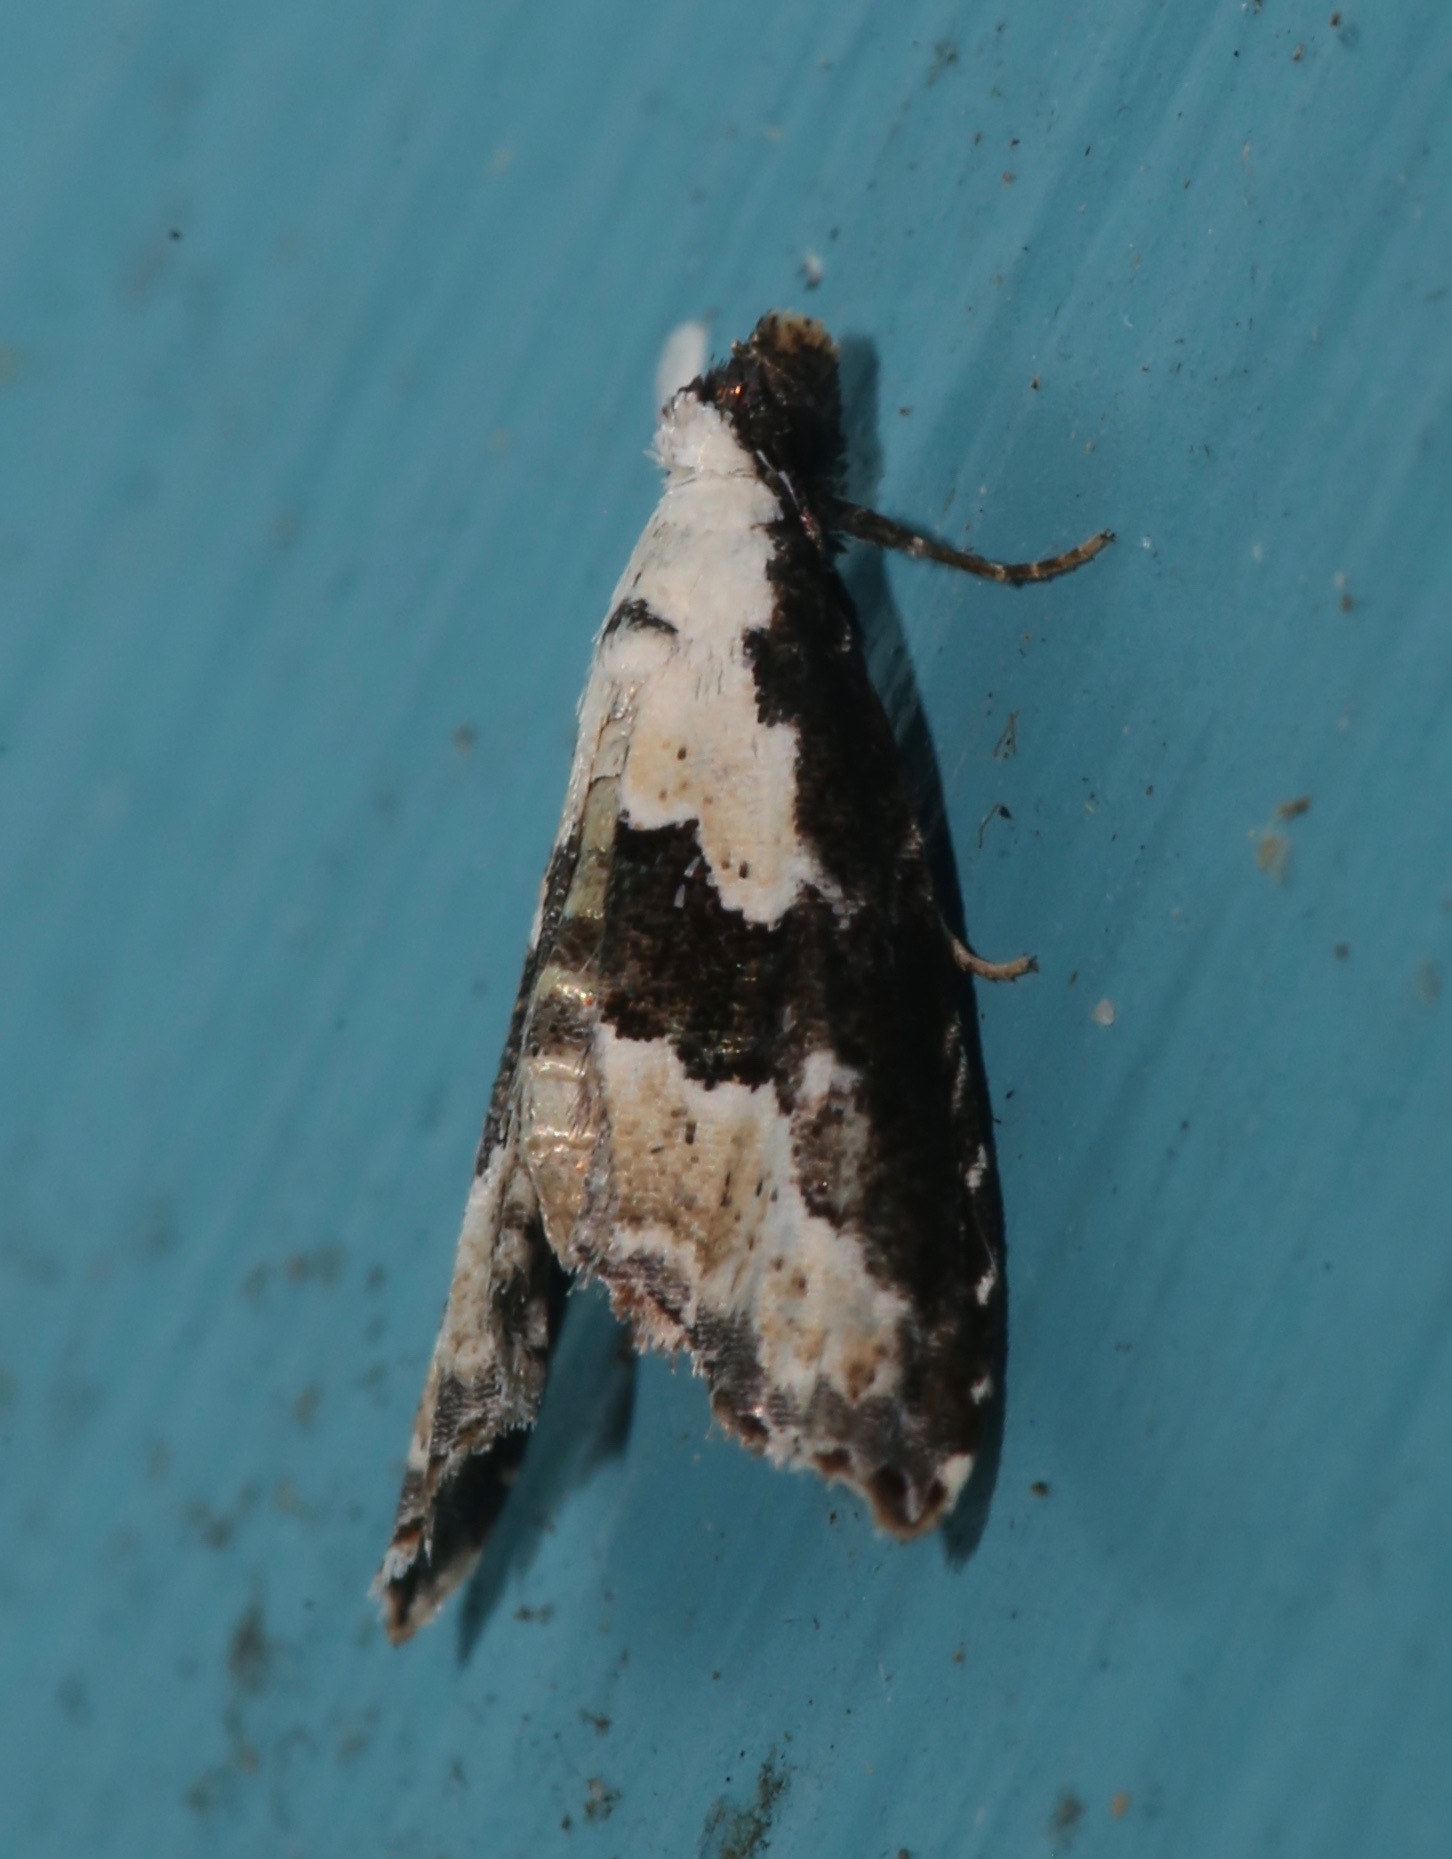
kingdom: Animalia
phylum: Arthropoda
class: Insecta
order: Lepidoptera
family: Noctuidae
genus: Nigetia
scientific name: Nigetia formosalis
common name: Thin-winged owlet
